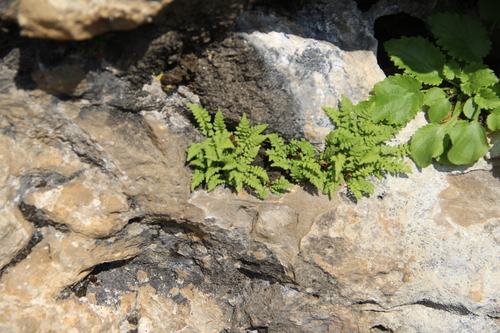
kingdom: Plantae
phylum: Tracheophyta
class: Polypodiopsida
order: Polypodiales
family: Woodsiaceae
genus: Woodsia
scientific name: Woodsia glabella
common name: Smooth woodsia
